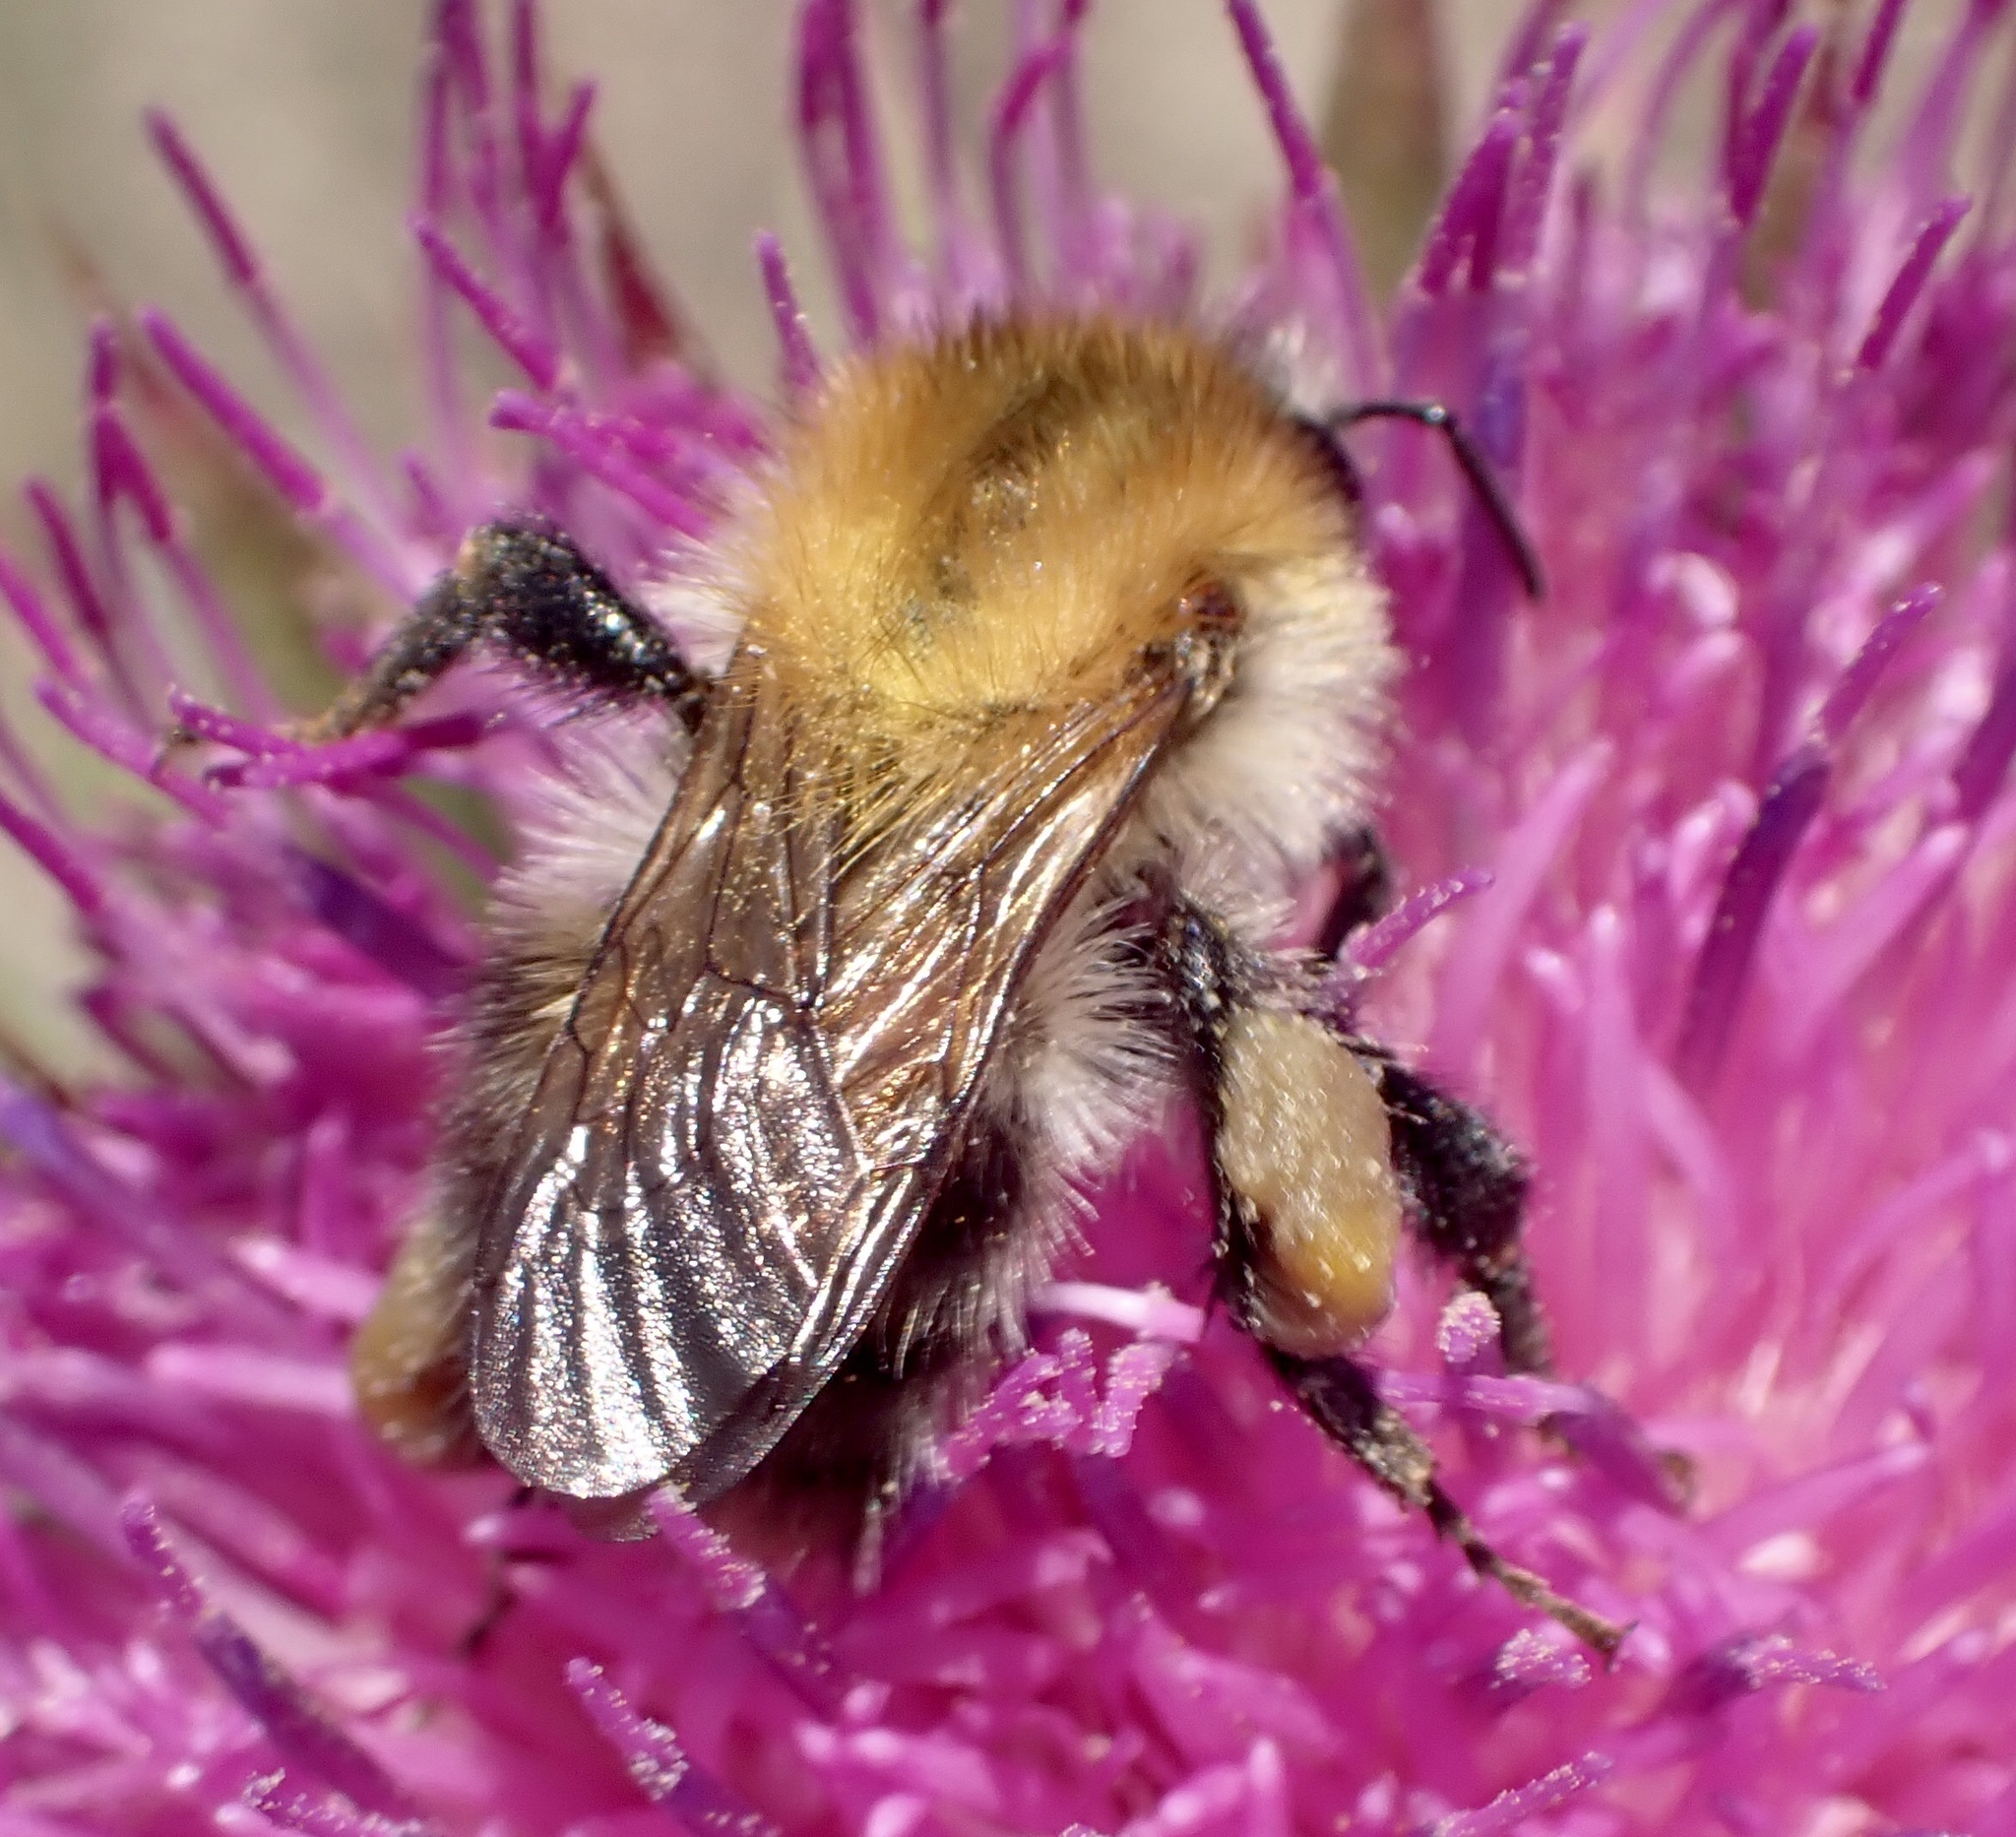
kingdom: Animalia
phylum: Arthropoda
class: Insecta
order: Hymenoptera
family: Apidae
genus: Bombus
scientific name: Bombus pascuorum
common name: Common carder bee
